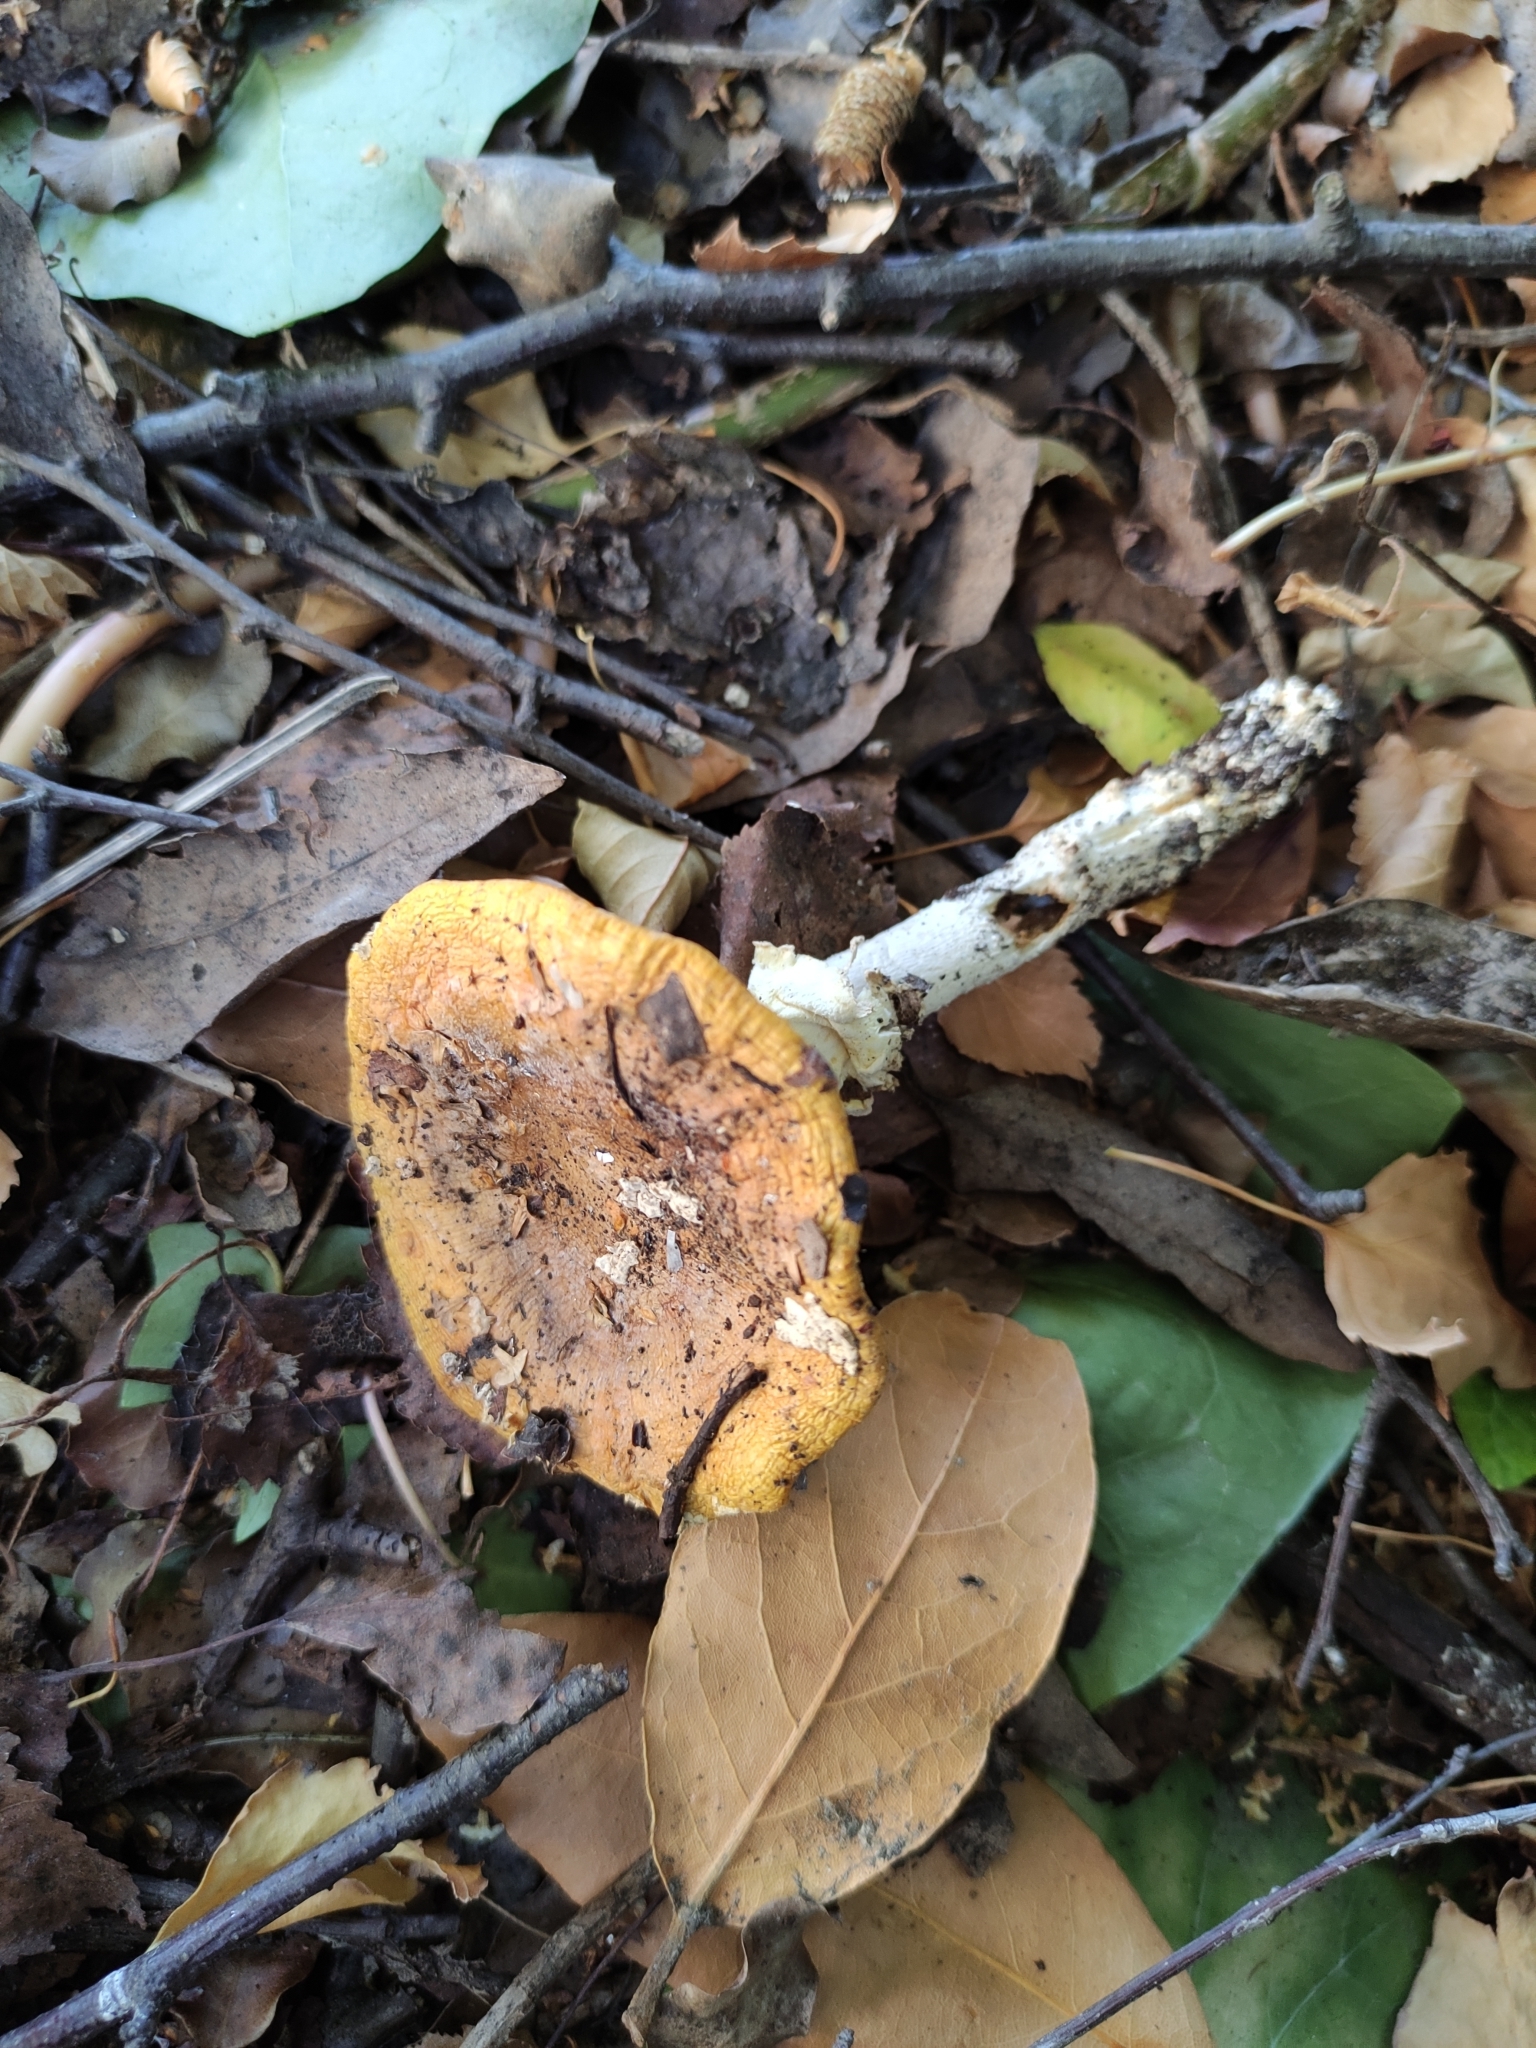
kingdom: Fungi
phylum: Basidiomycota
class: Agaricomycetes
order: Agaricales
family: Amanitaceae
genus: Amanita
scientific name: Amanita muscaria
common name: Fly agaric
